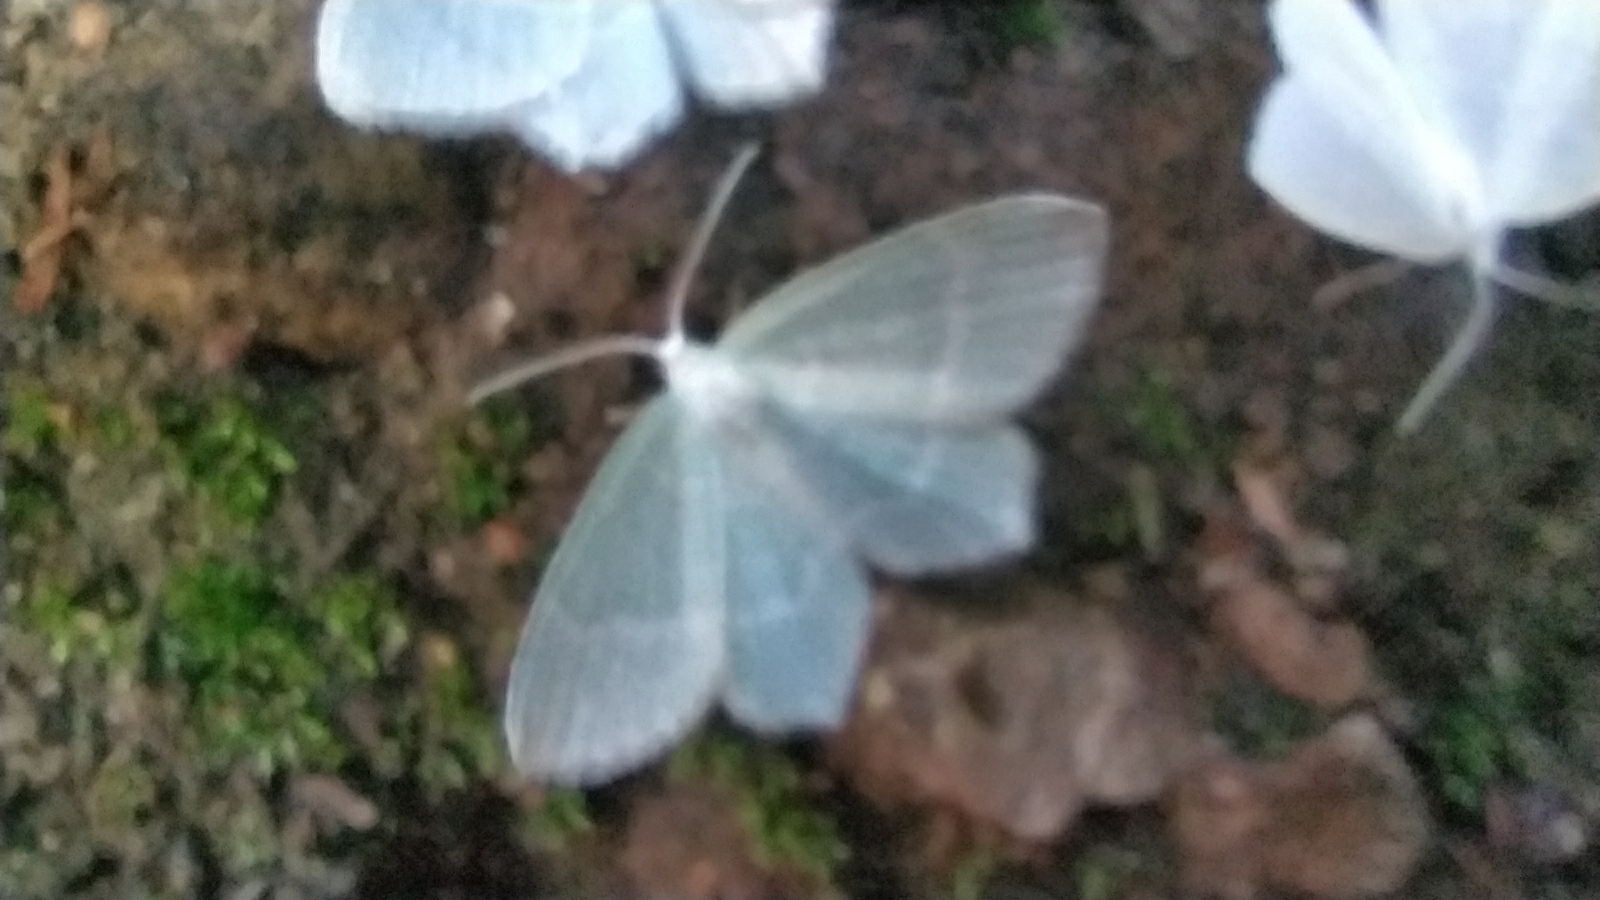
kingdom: Animalia
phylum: Arthropoda
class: Insecta
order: Lepidoptera
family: Geometridae
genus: Jodis
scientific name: Jodis lactearia
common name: Little emerald
